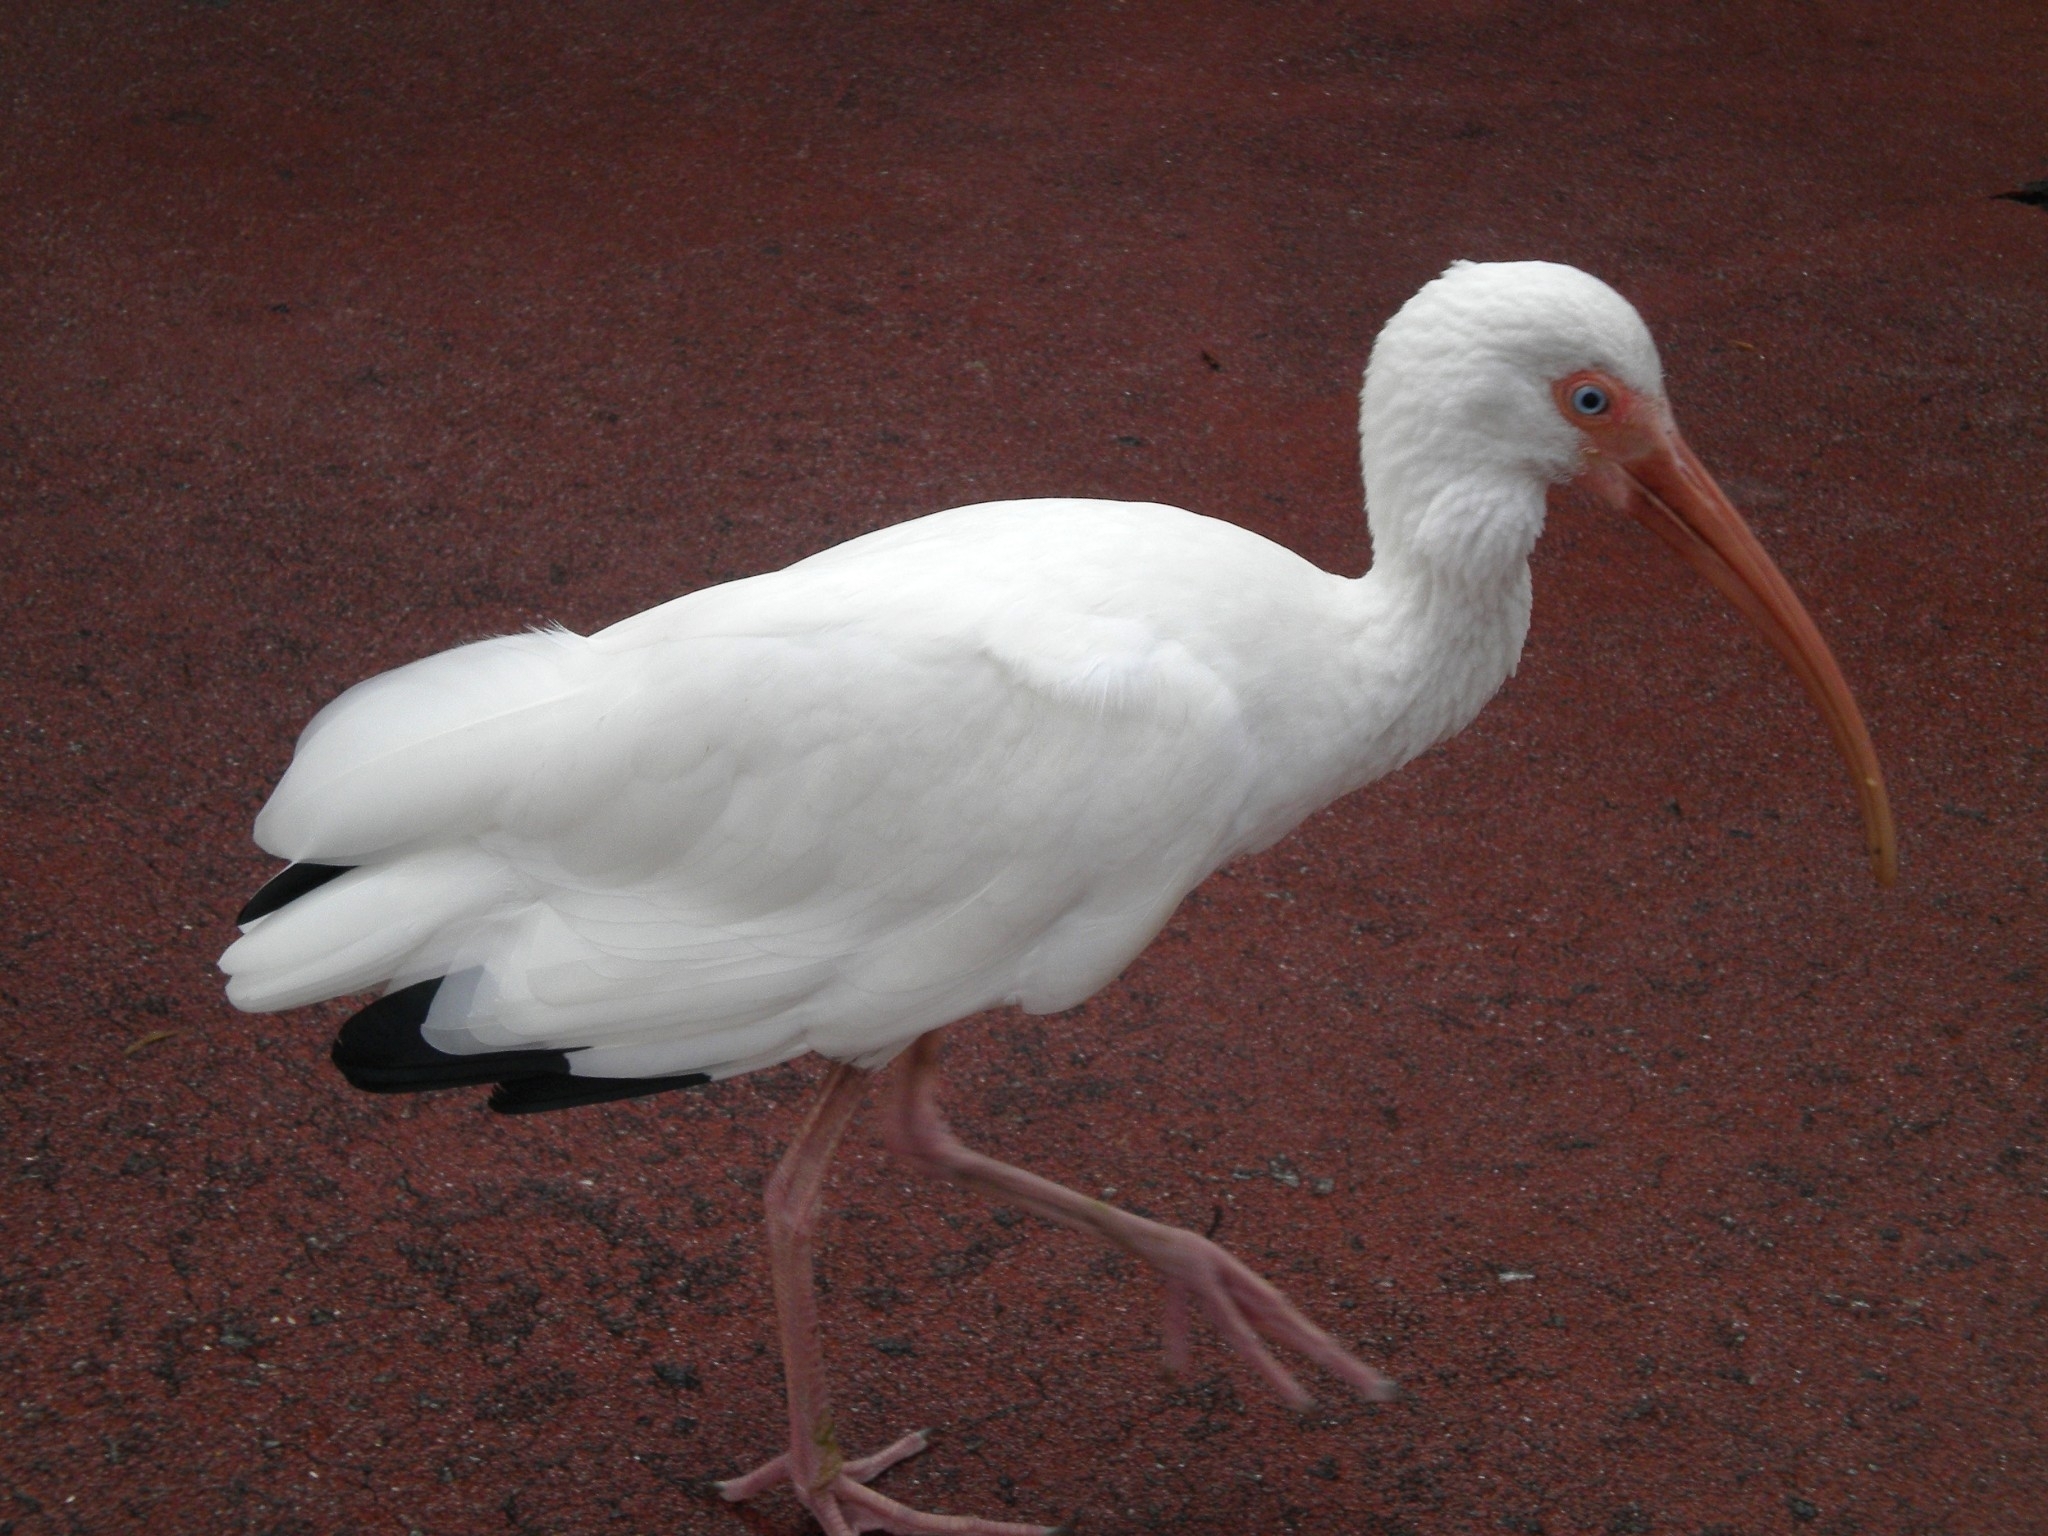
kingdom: Animalia
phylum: Chordata
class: Aves
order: Pelecaniformes
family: Threskiornithidae
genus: Eudocimus
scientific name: Eudocimus albus
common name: White ibis
